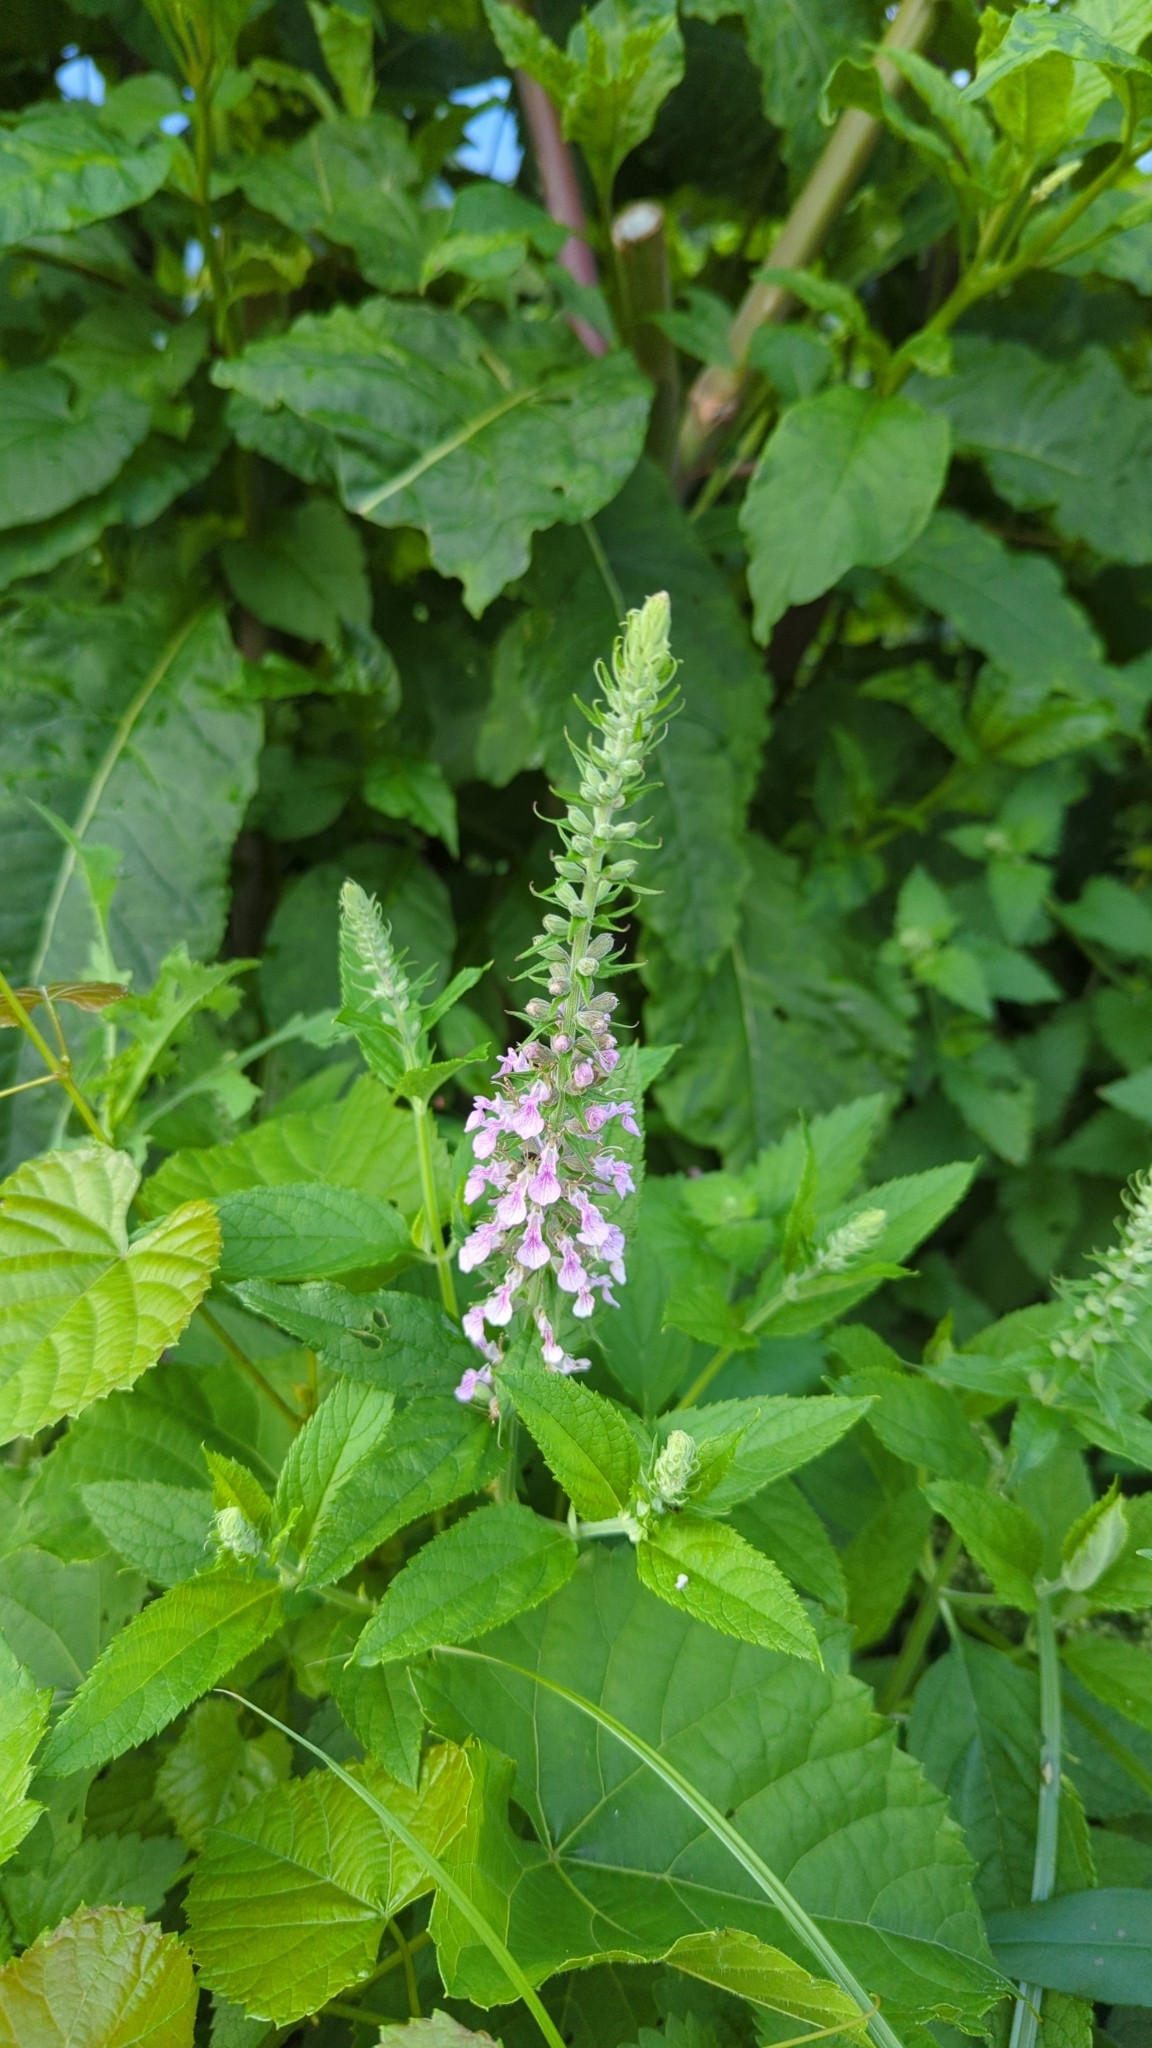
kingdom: Plantae
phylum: Tracheophyta
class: Magnoliopsida
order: Lamiales
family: Lamiaceae
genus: Teucrium
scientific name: Teucrium canadense
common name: American germander
